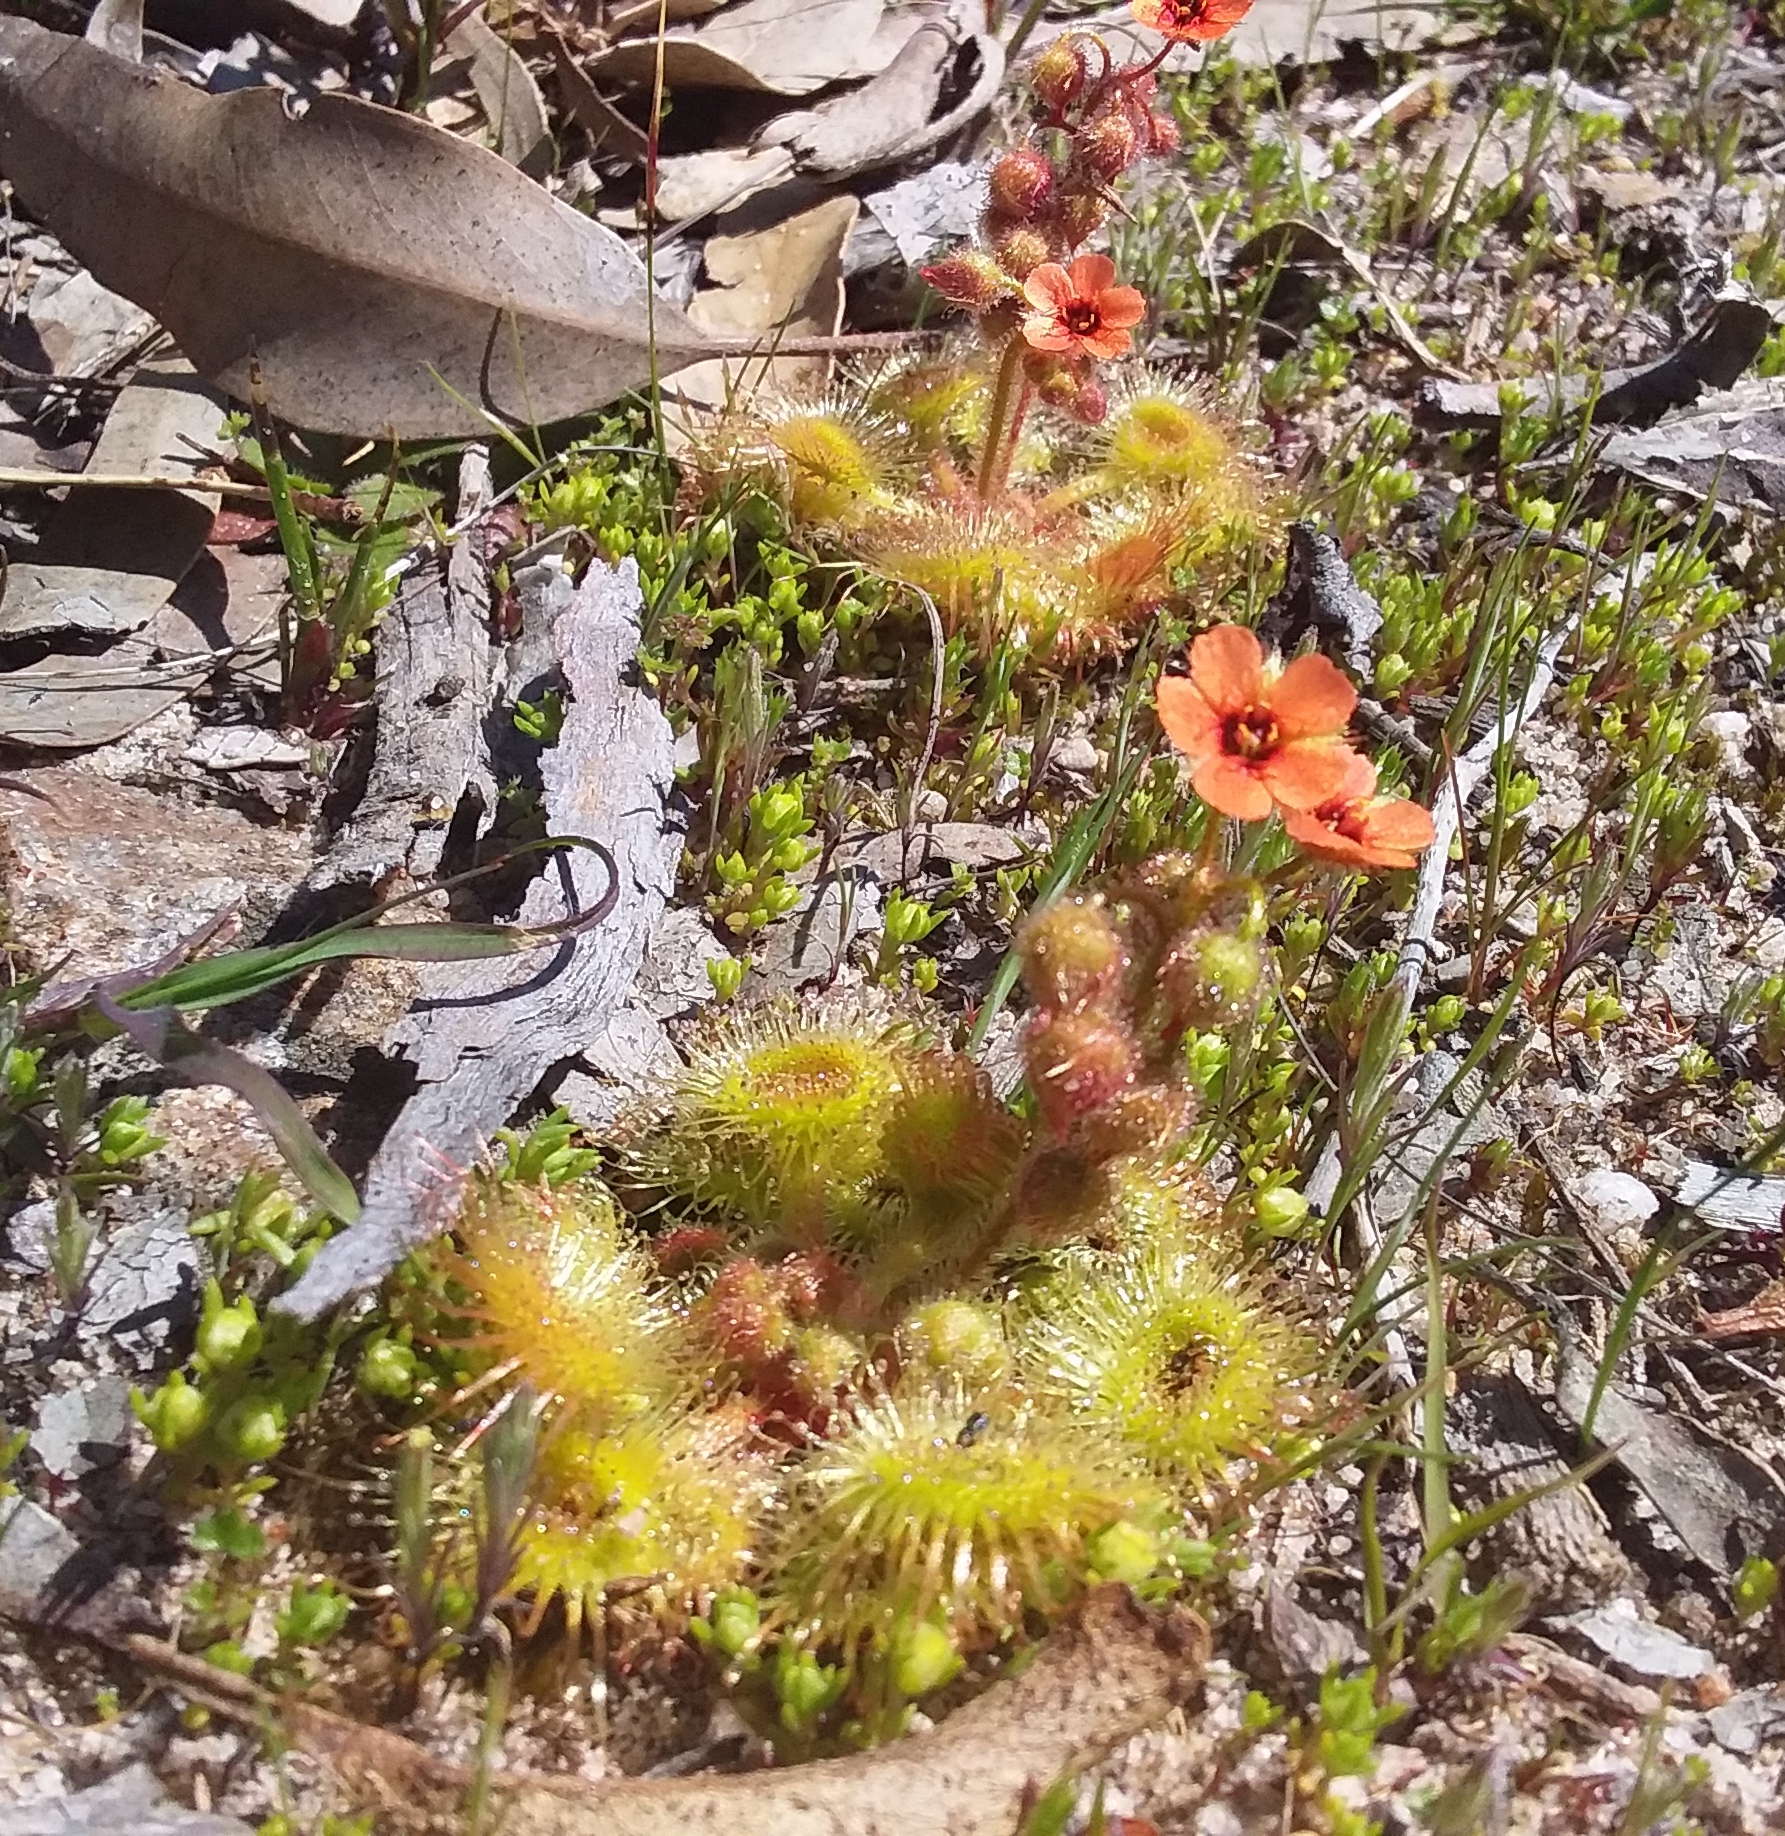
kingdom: Plantae
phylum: Tracheophyta
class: Magnoliopsida
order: Caryophyllales
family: Droseraceae
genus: Drosera
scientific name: Drosera glanduligera
